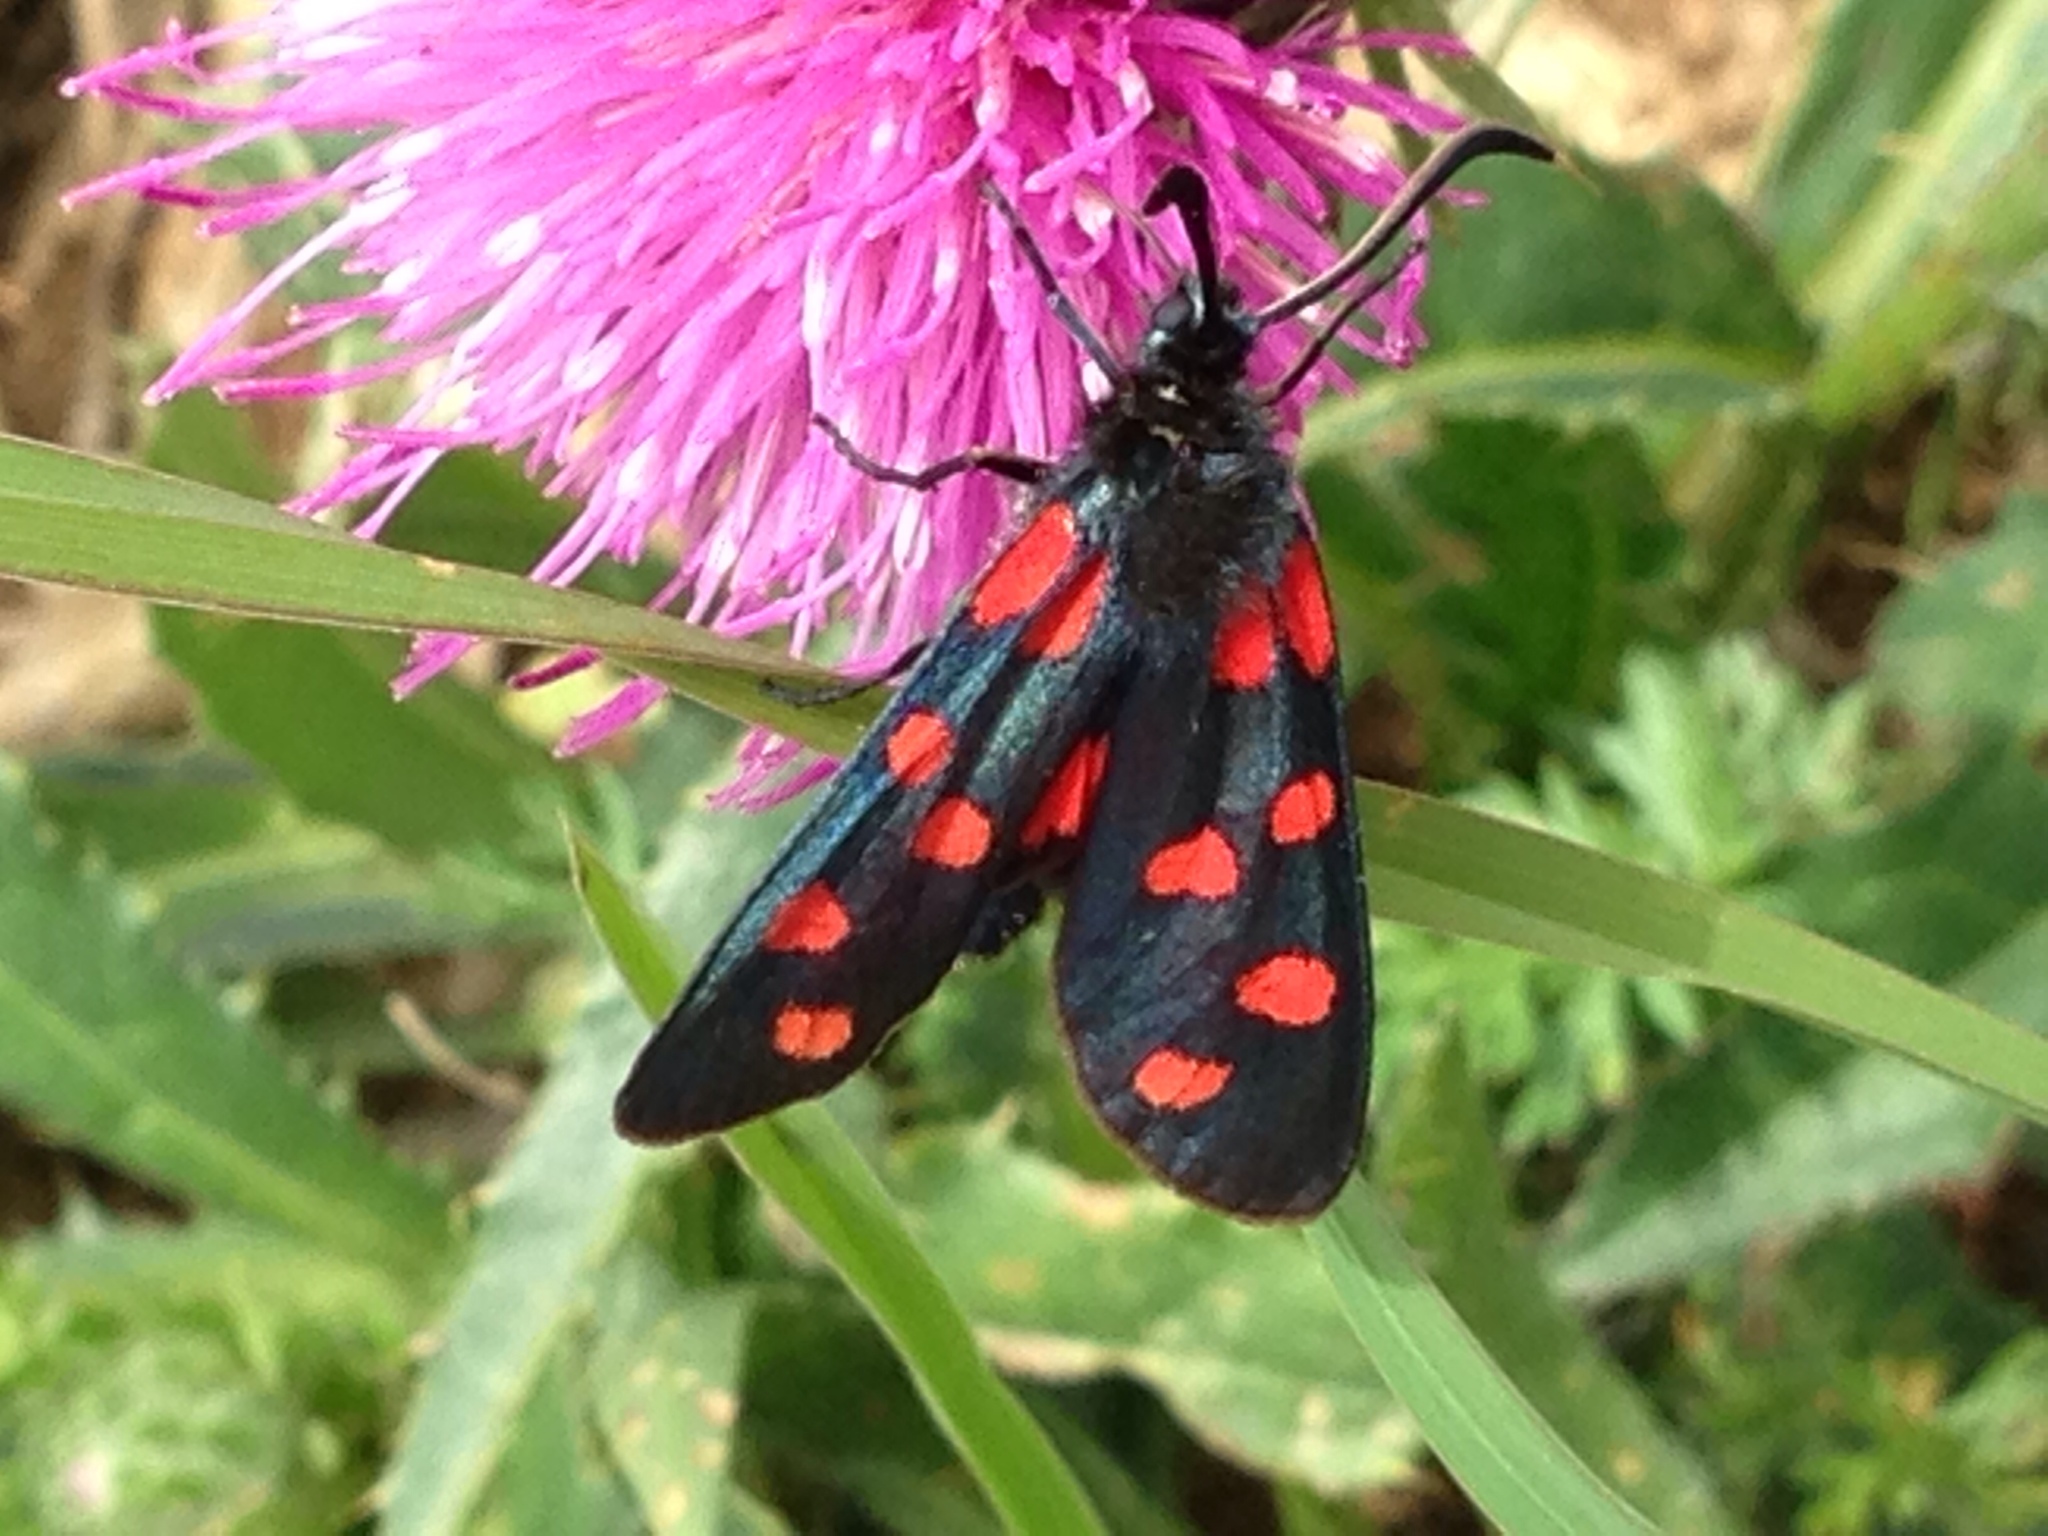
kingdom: Animalia
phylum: Arthropoda
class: Insecta
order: Lepidoptera
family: Zygaenidae
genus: Zygaena
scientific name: Zygaena filipendulae
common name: Six-spot burnet
